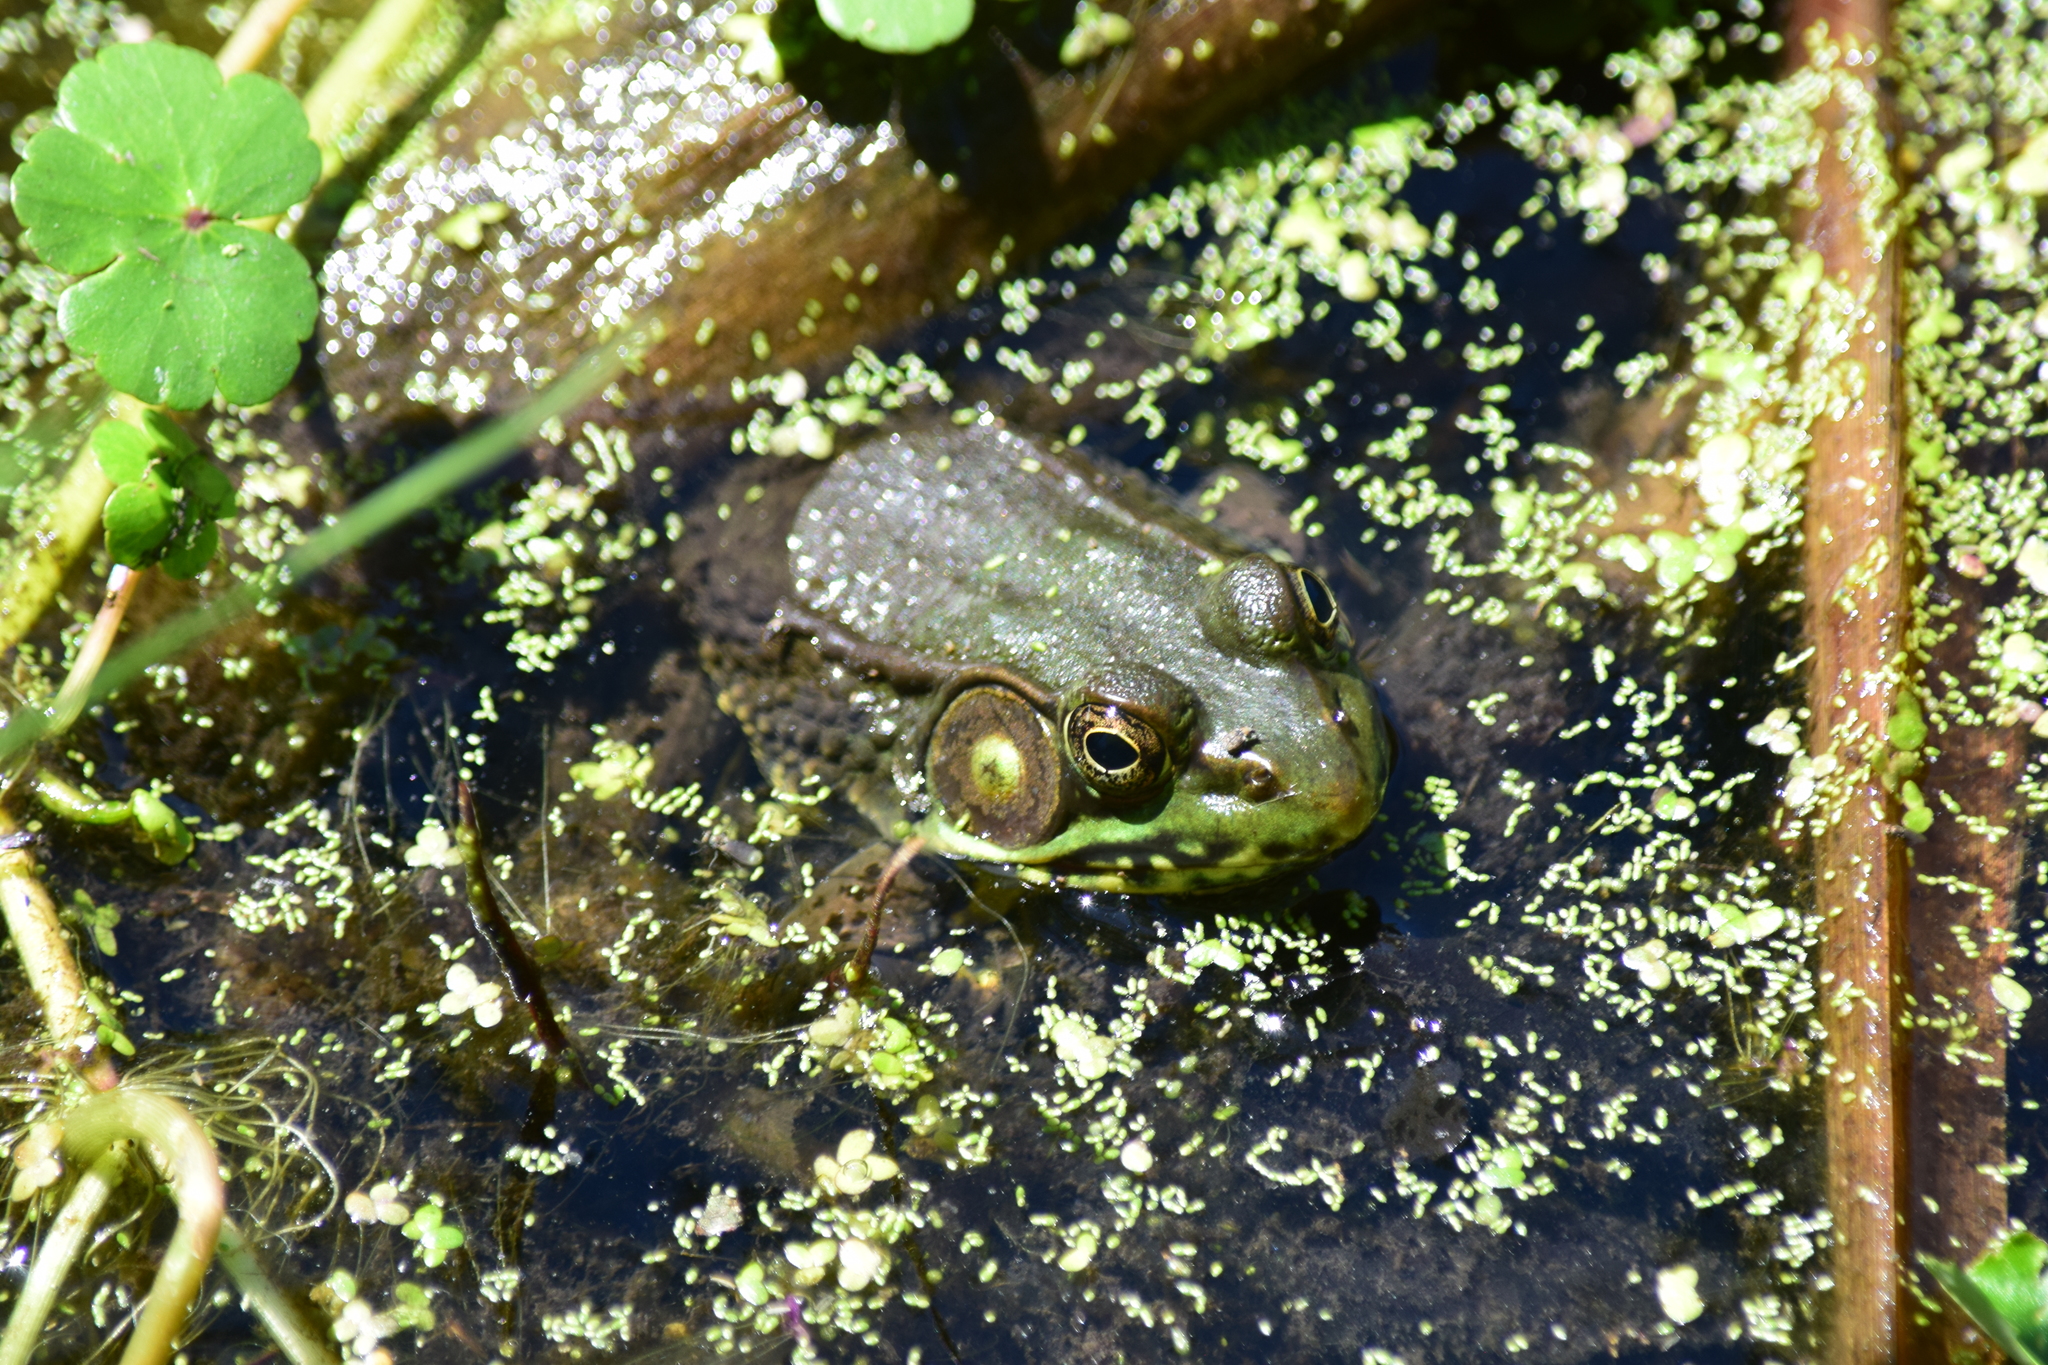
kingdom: Animalia
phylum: Chordata
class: Amphibia
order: Anura
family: Ranidae
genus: Lithobates
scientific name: Lithobates clamitans
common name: Green frog
